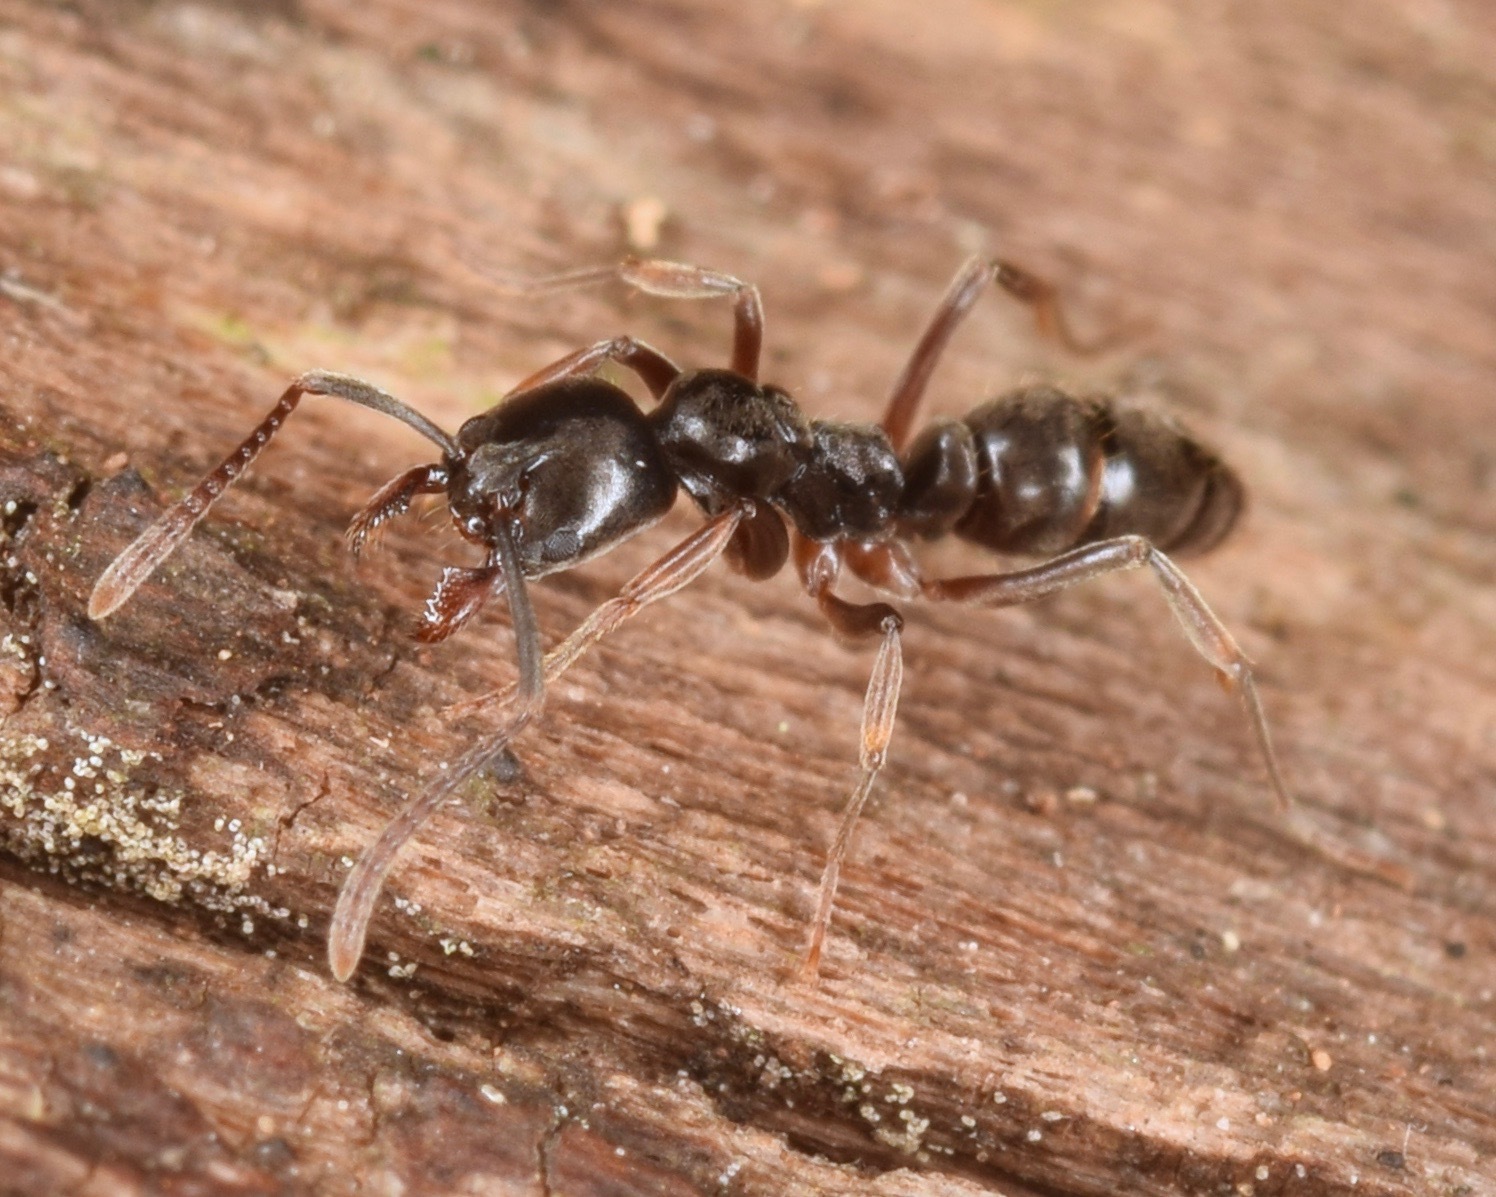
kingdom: Animalia
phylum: Arthropoda
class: Insecta
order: Hymenoptera
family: Formicidae
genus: Pachycondyla
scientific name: Pachycondyla chinensis
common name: Asian needle ant
